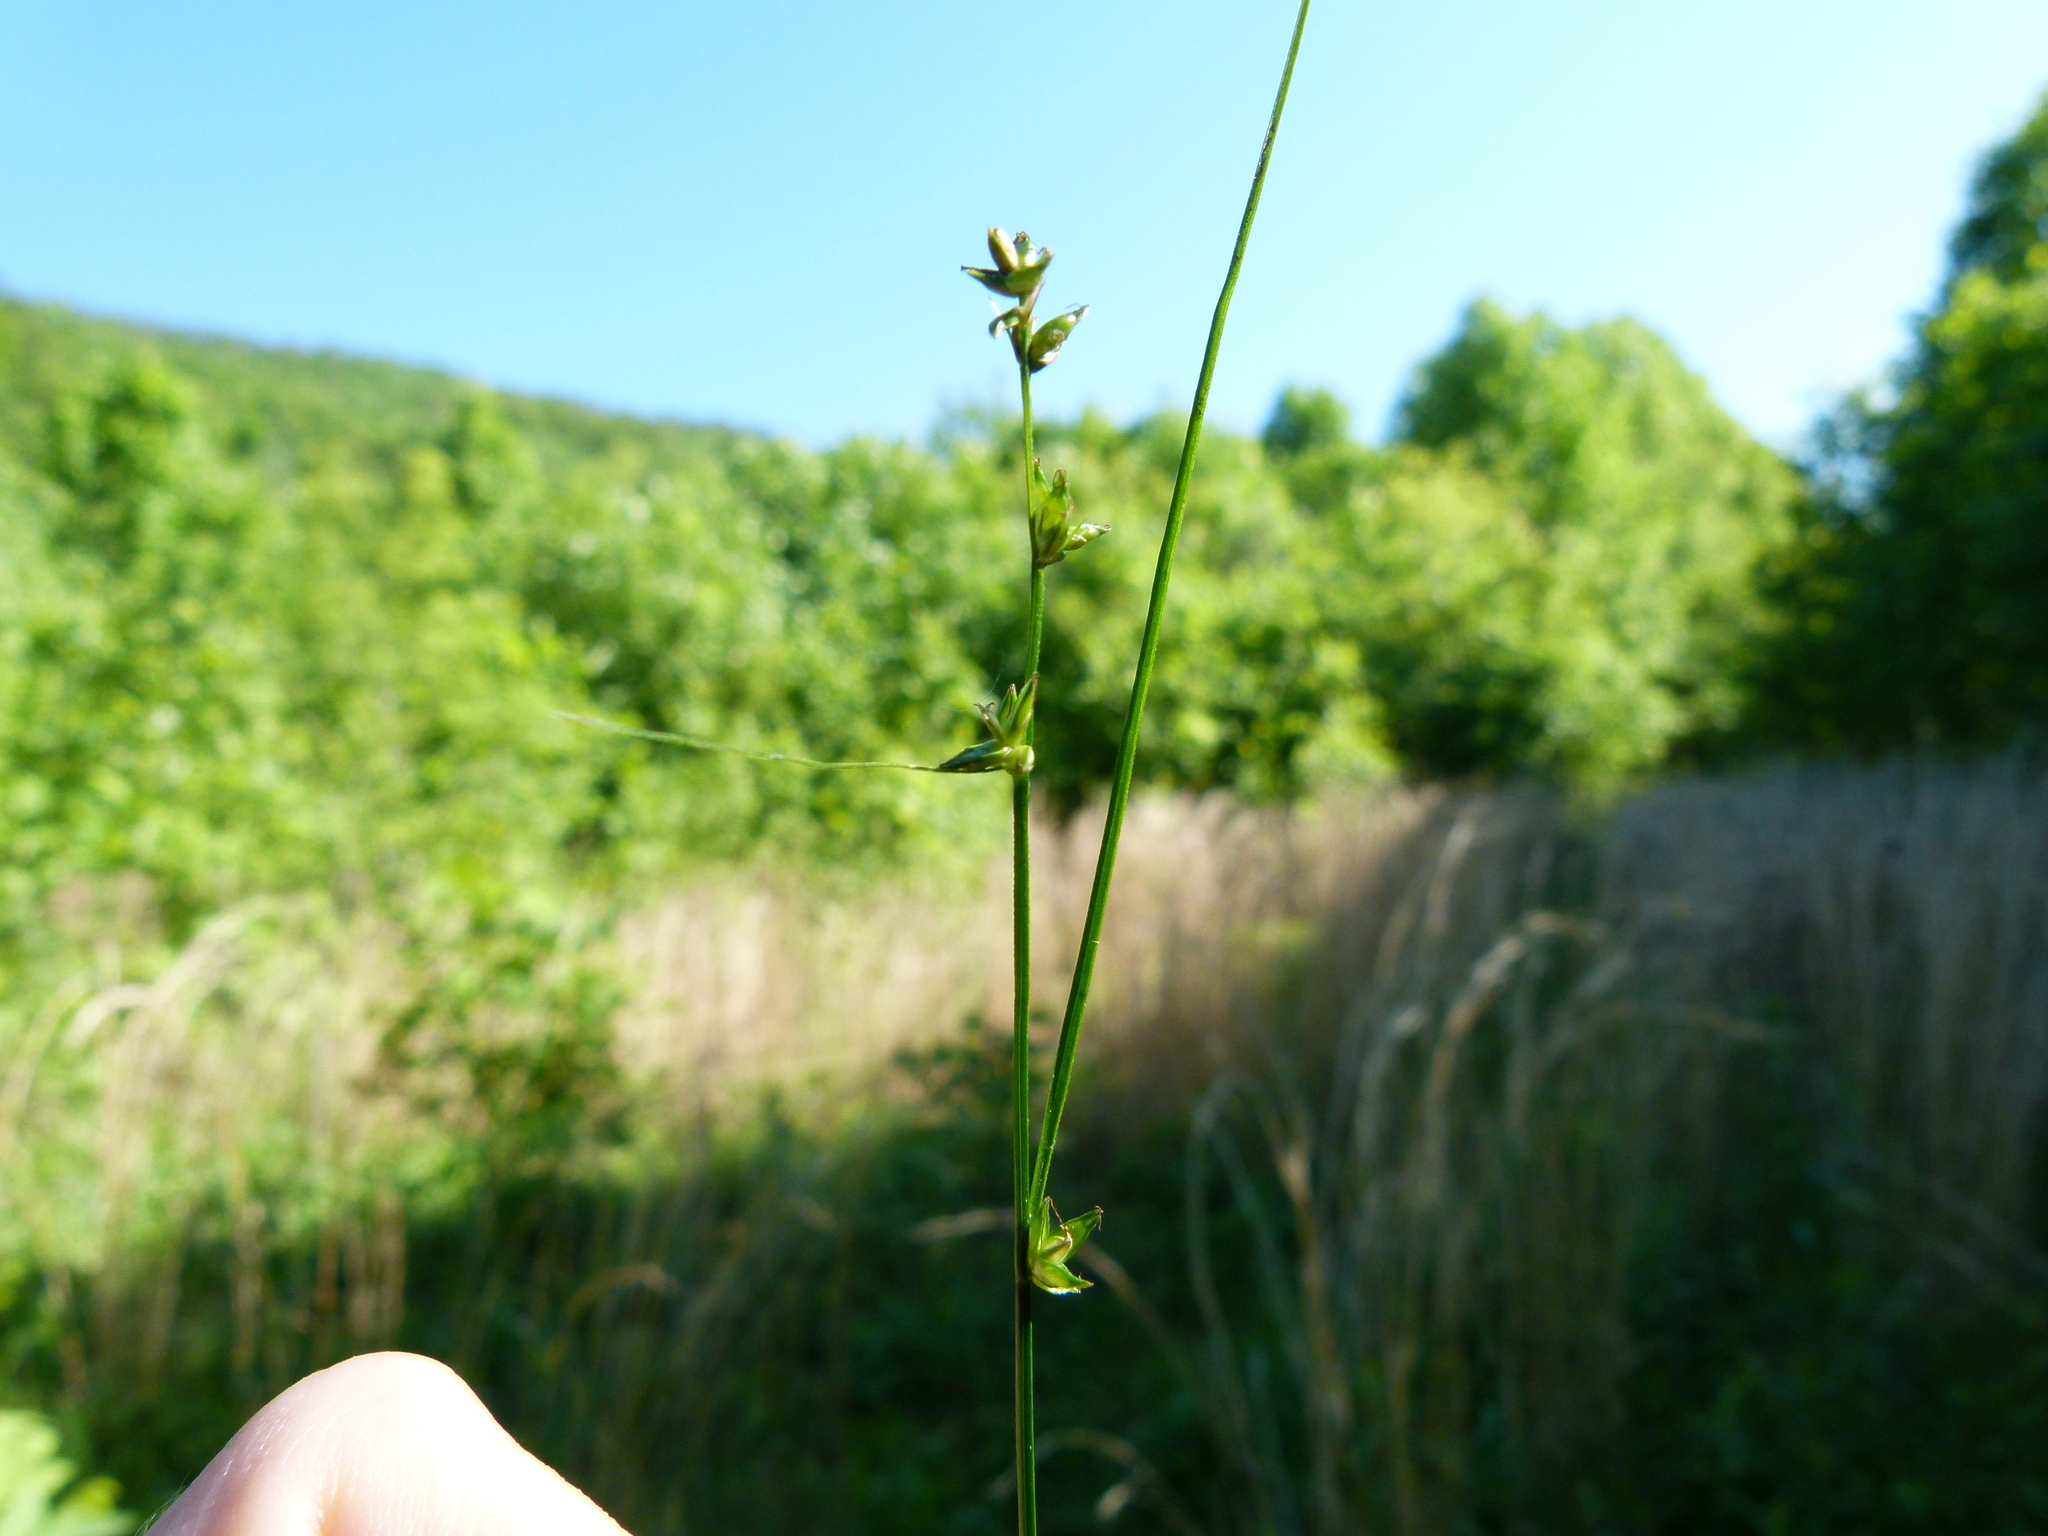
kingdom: Plantae
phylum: Tracheophyta
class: Liliopsida
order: Poales
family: Cyperaceae
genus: Carex
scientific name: Carex radiata
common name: Eastern star sedge
